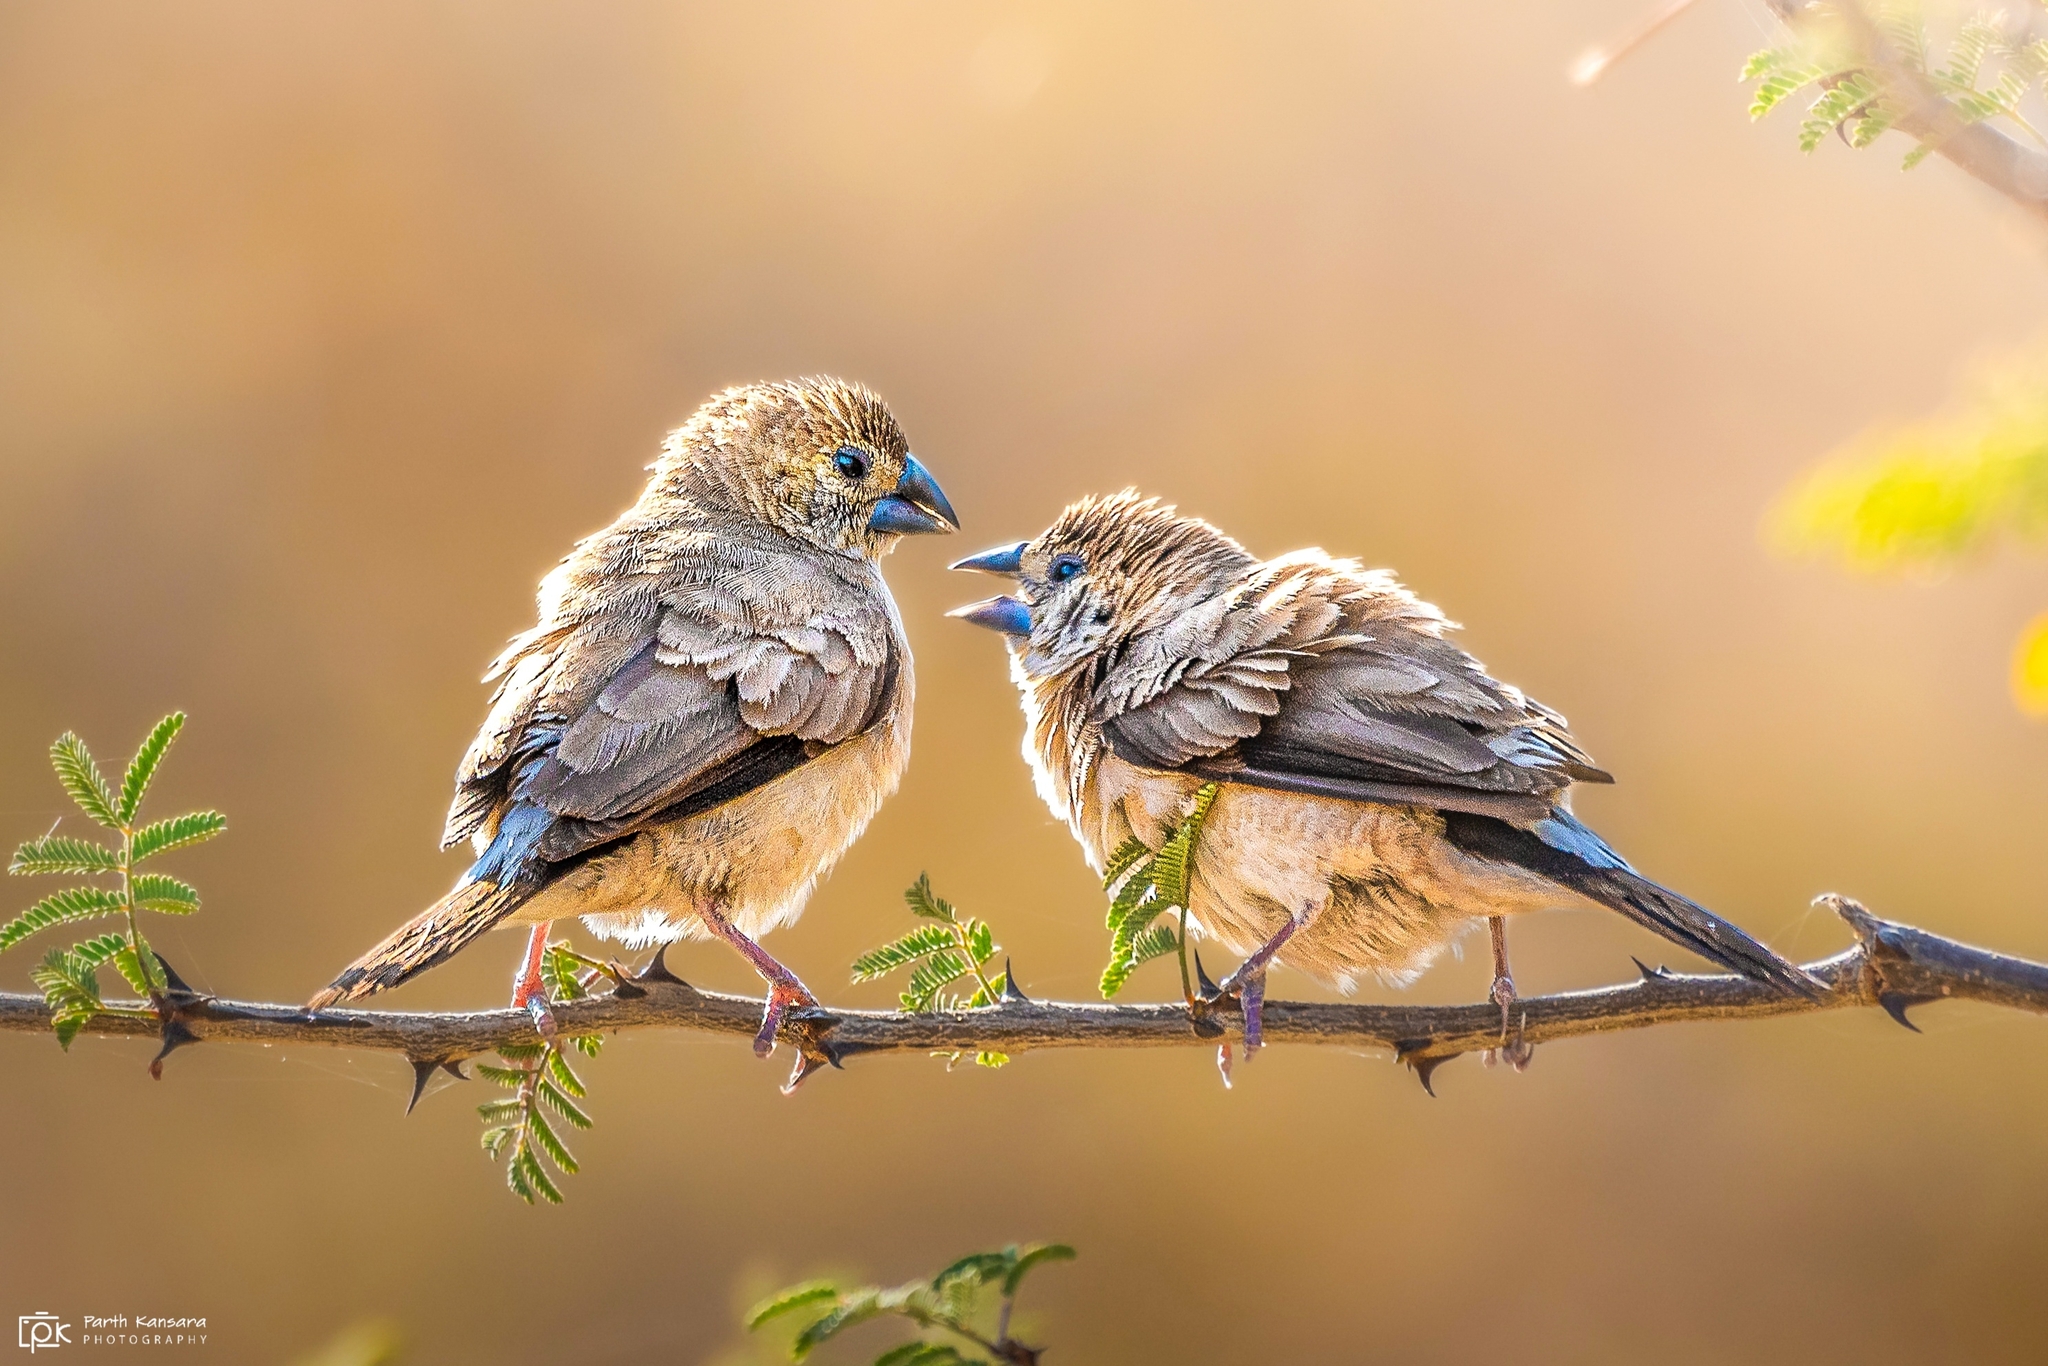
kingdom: Animalia
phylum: Chordata
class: Aves
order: Passeriformes
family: Estrildidae
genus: Euodice
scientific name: Euodice malabarica
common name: Indian silverbill
